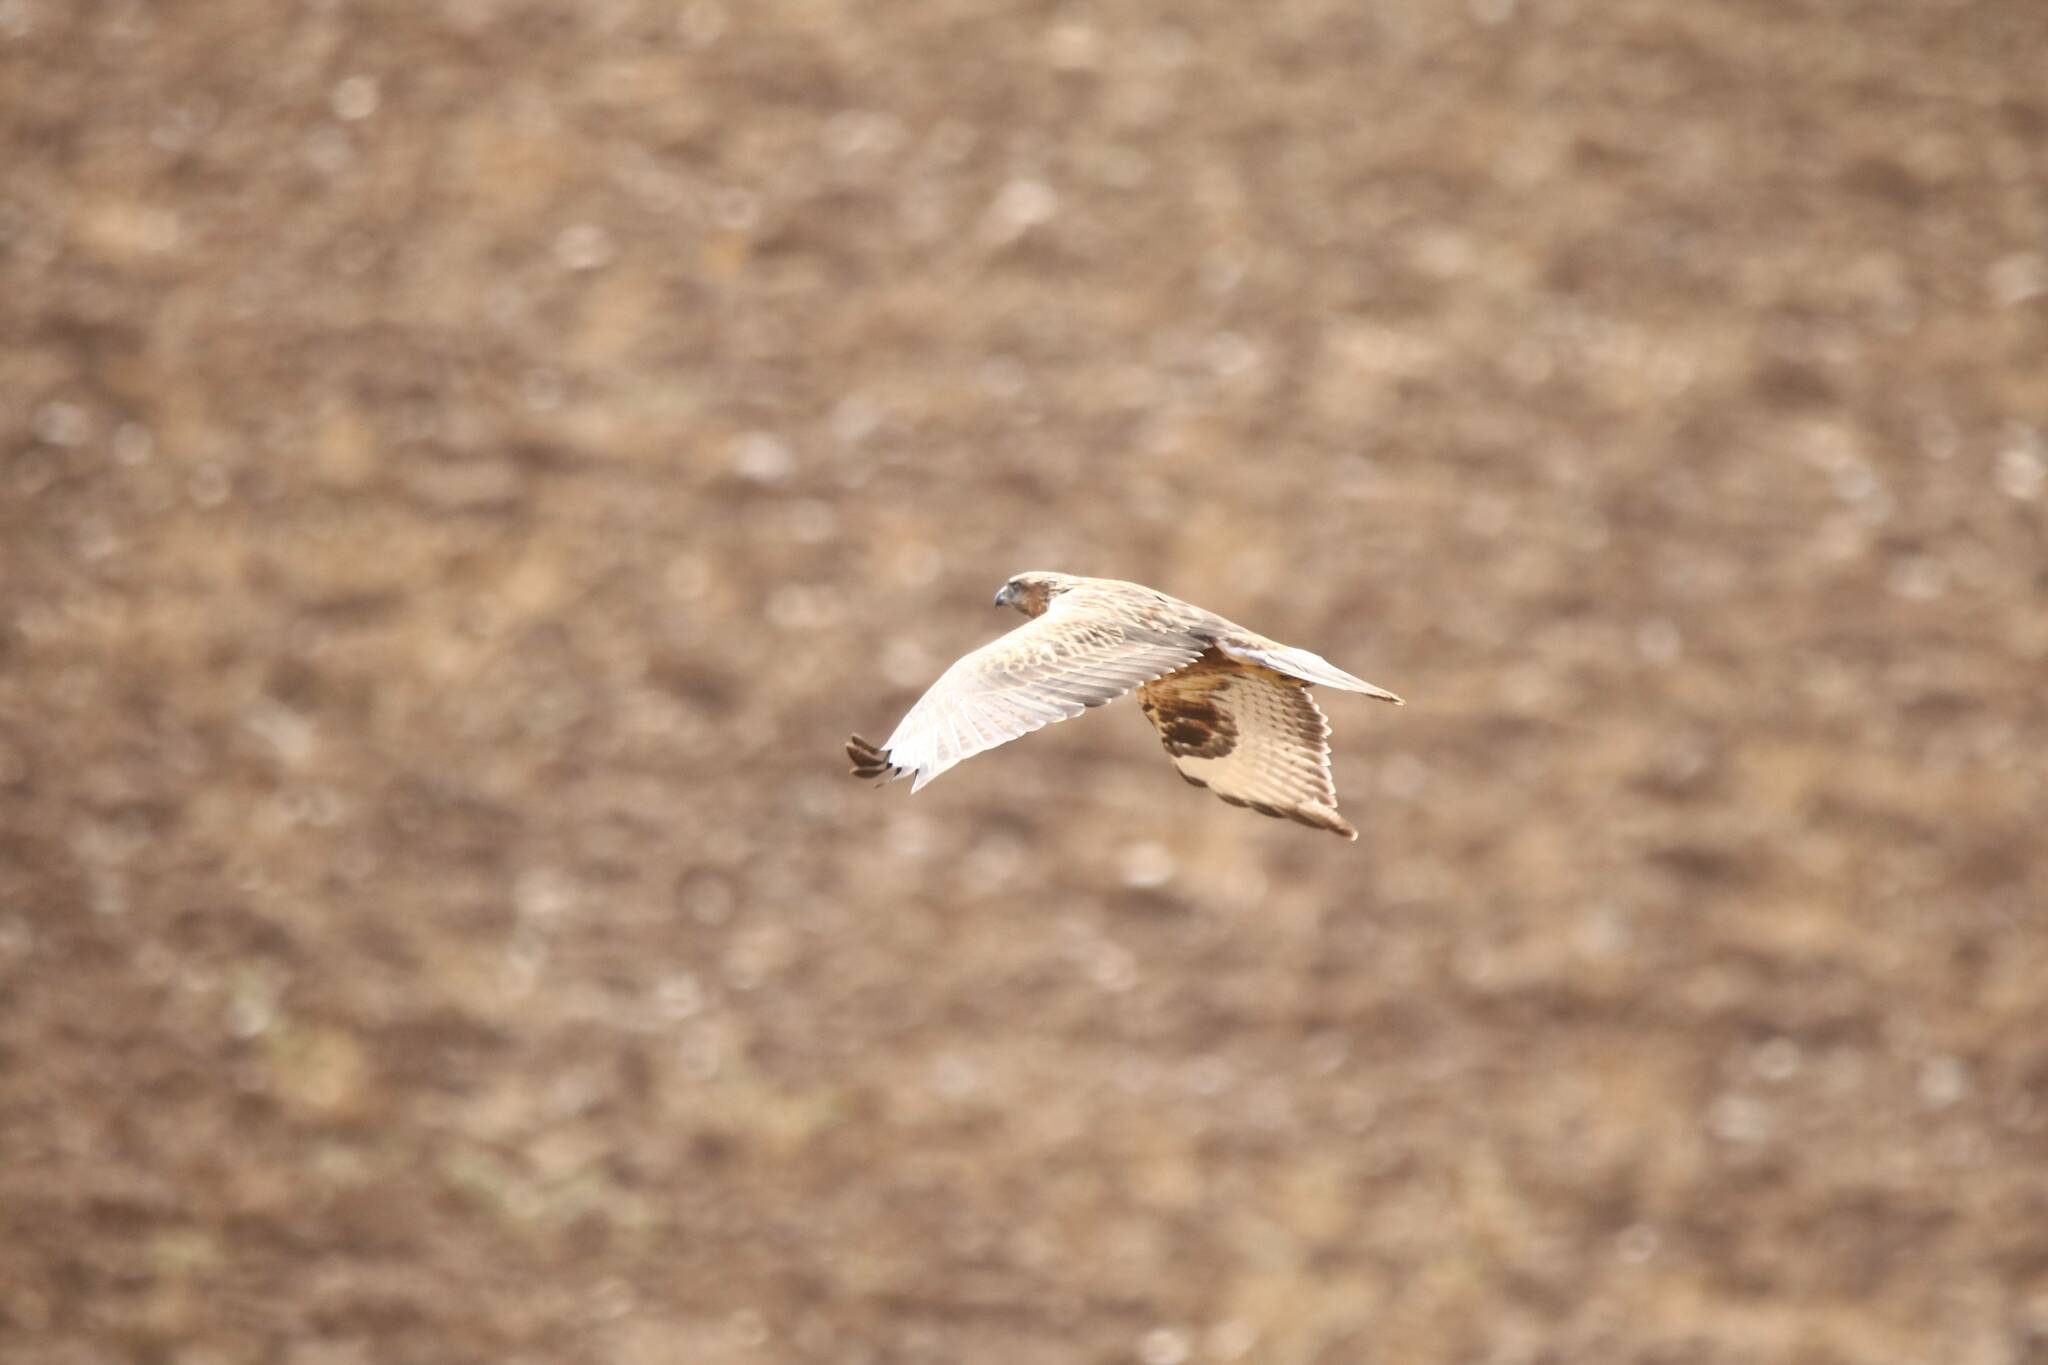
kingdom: Animalia
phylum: Chordata
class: Aves
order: Accipitriformes
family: Accipitridae
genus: Buteo
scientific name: Buteo rufinus
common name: Long-legged buzzard
